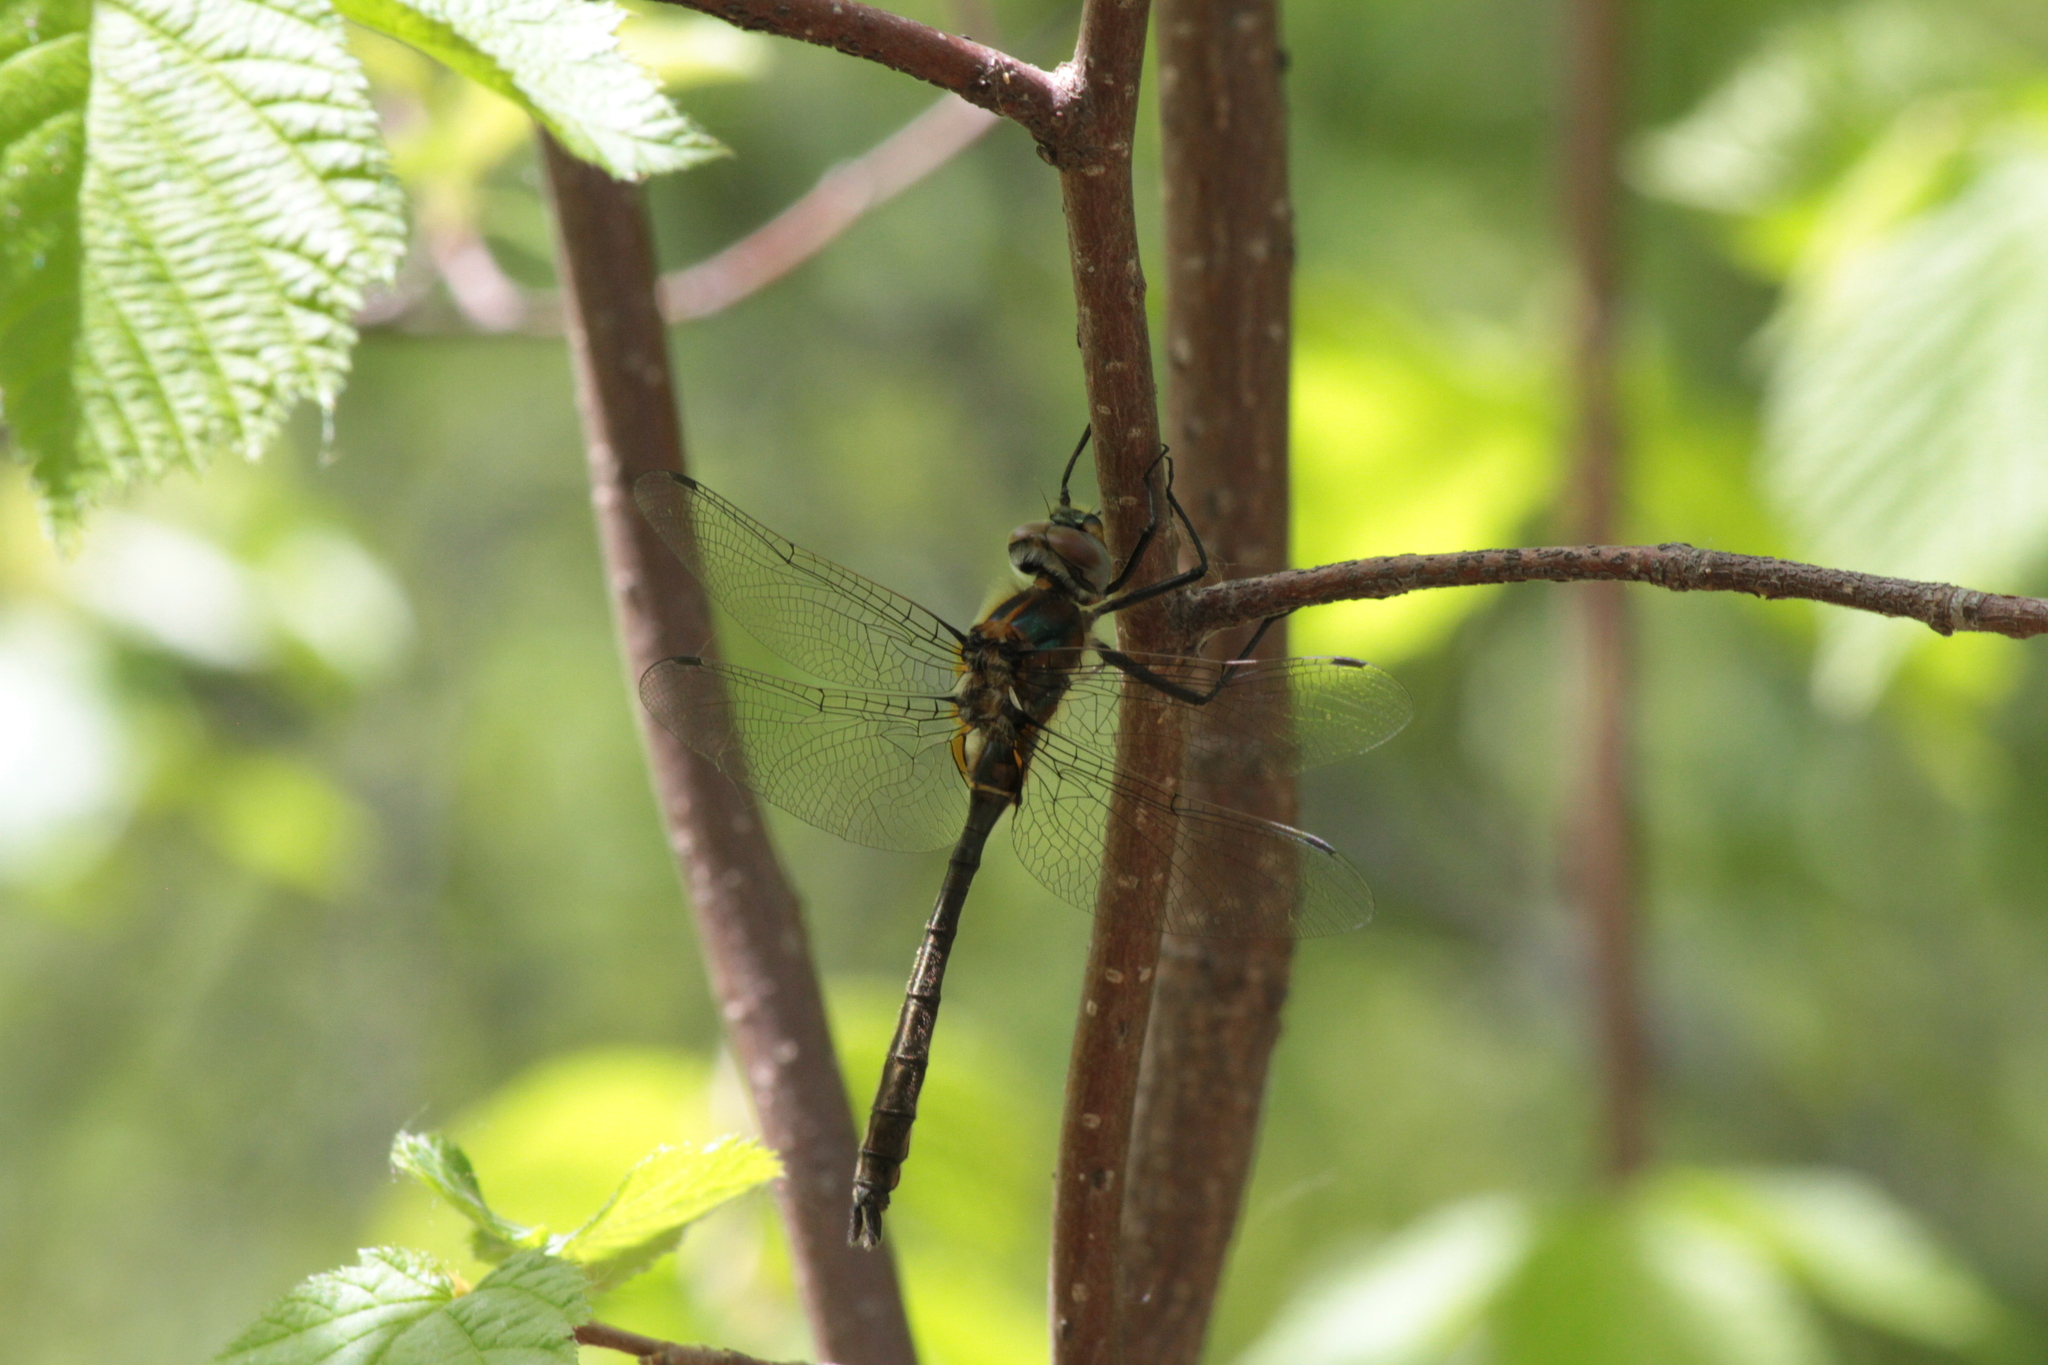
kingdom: Animalia
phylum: Arthropoda
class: Insecta
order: Odonata
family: Corduliidae
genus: Cordulia
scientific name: Cordulia shurtleffii
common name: American emerald
